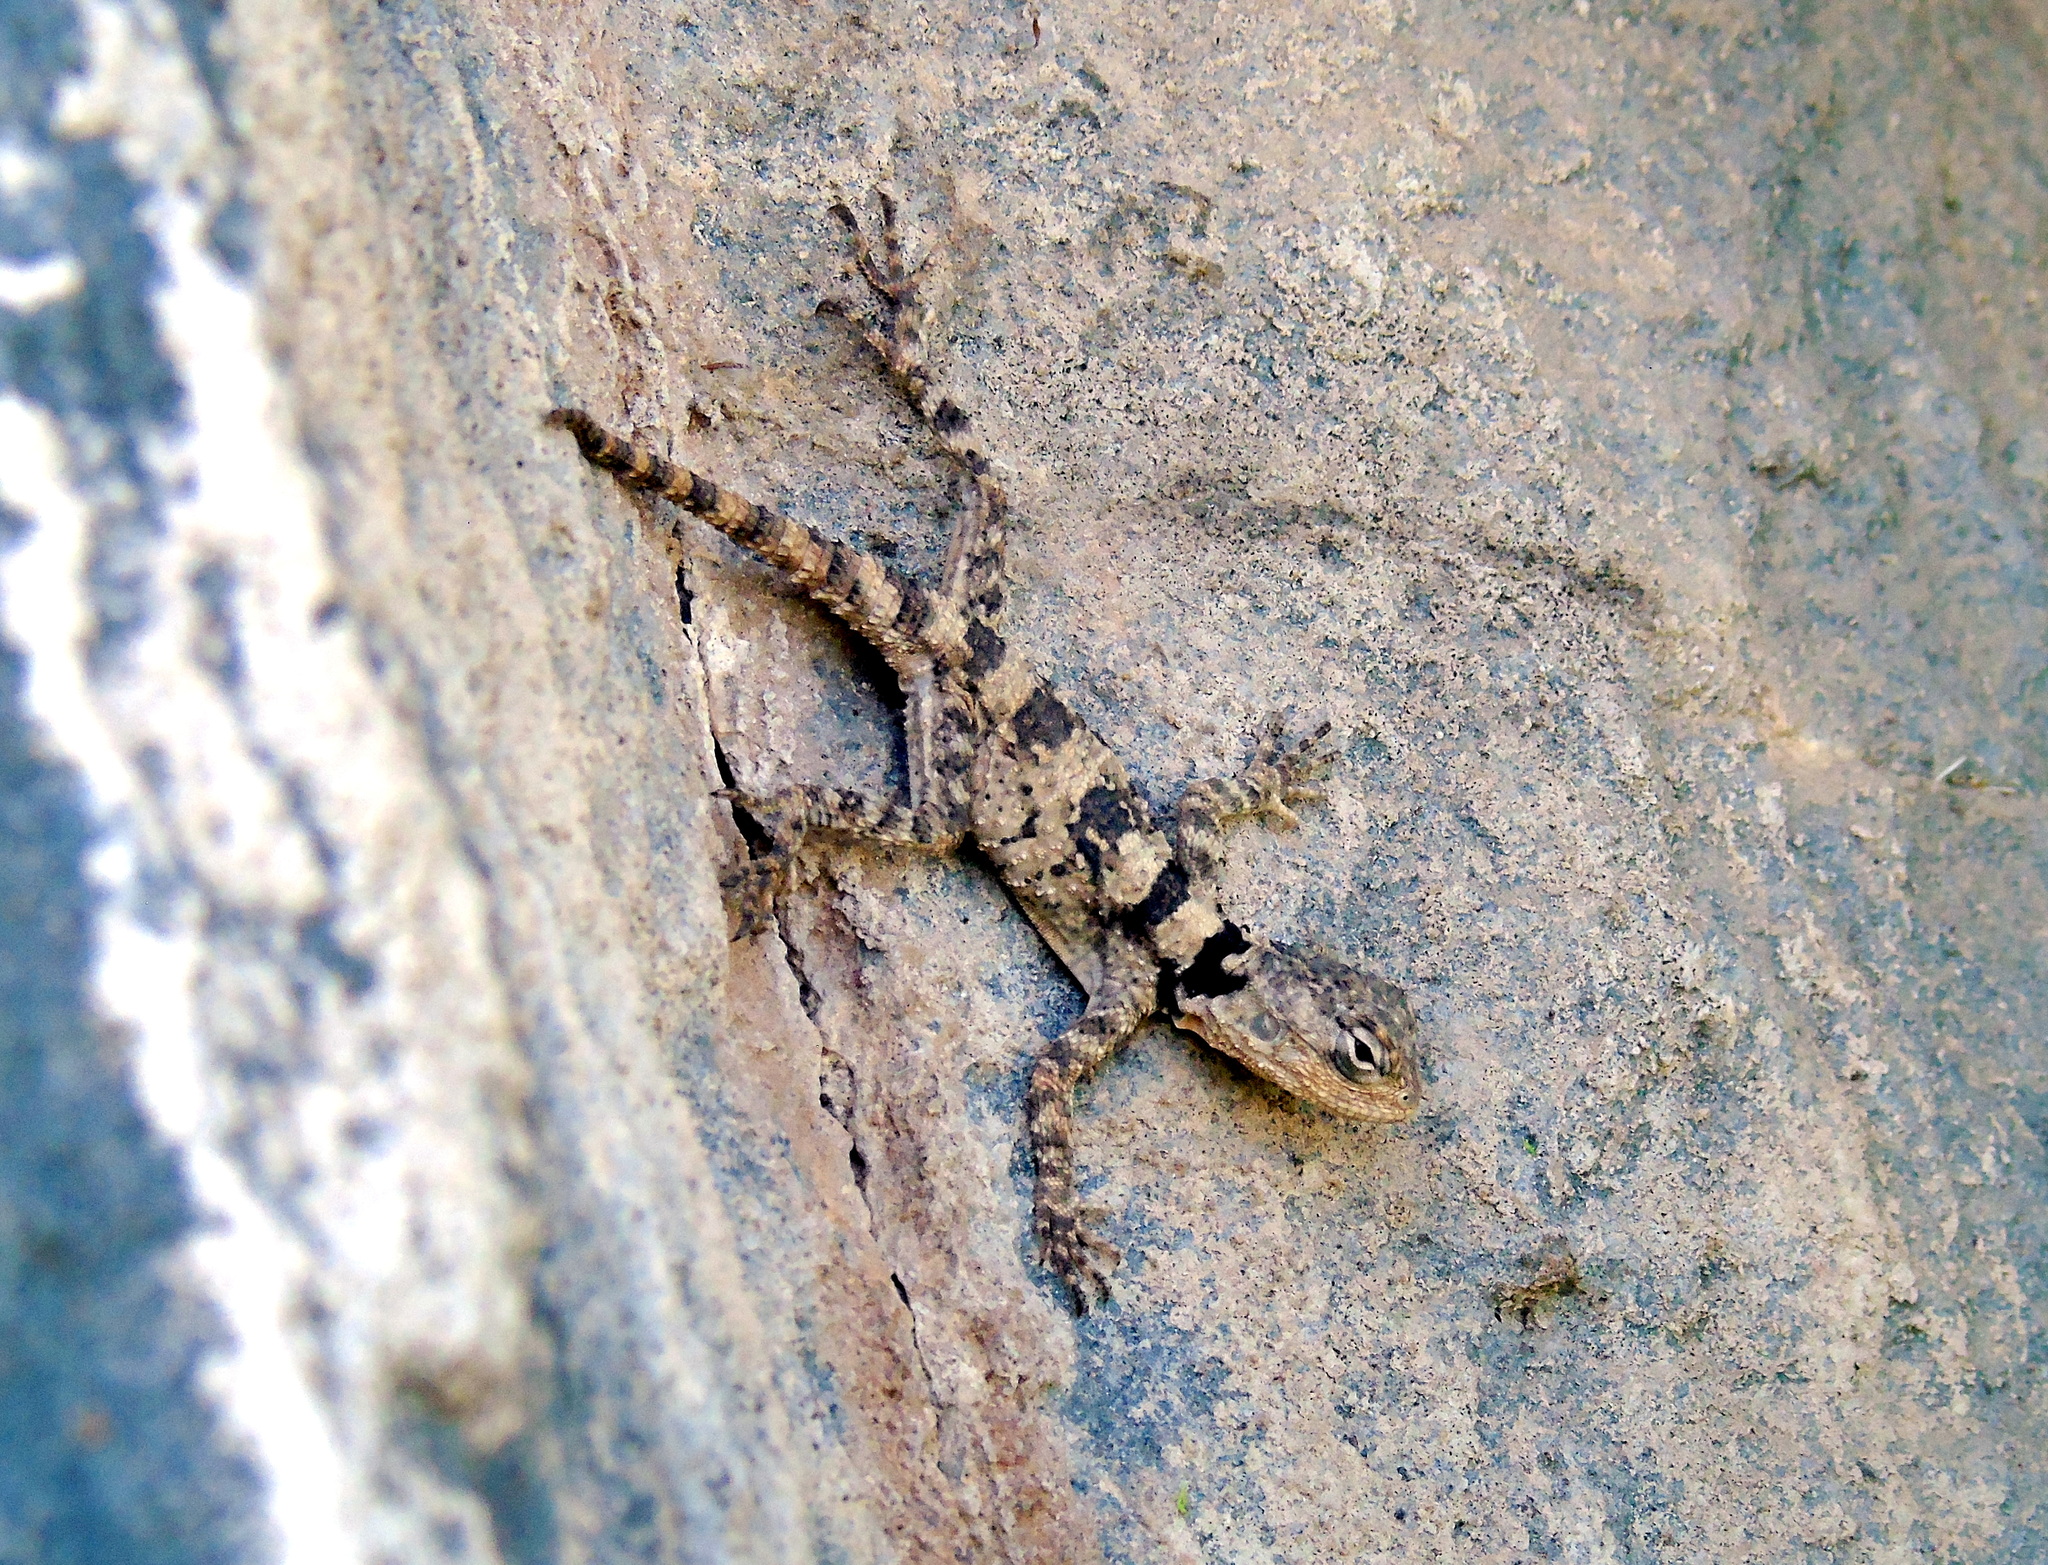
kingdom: Animalia
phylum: Chordata
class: Squamata
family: Agamidae
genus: Stellagama
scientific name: Stellagama stellio
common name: Starred agama
